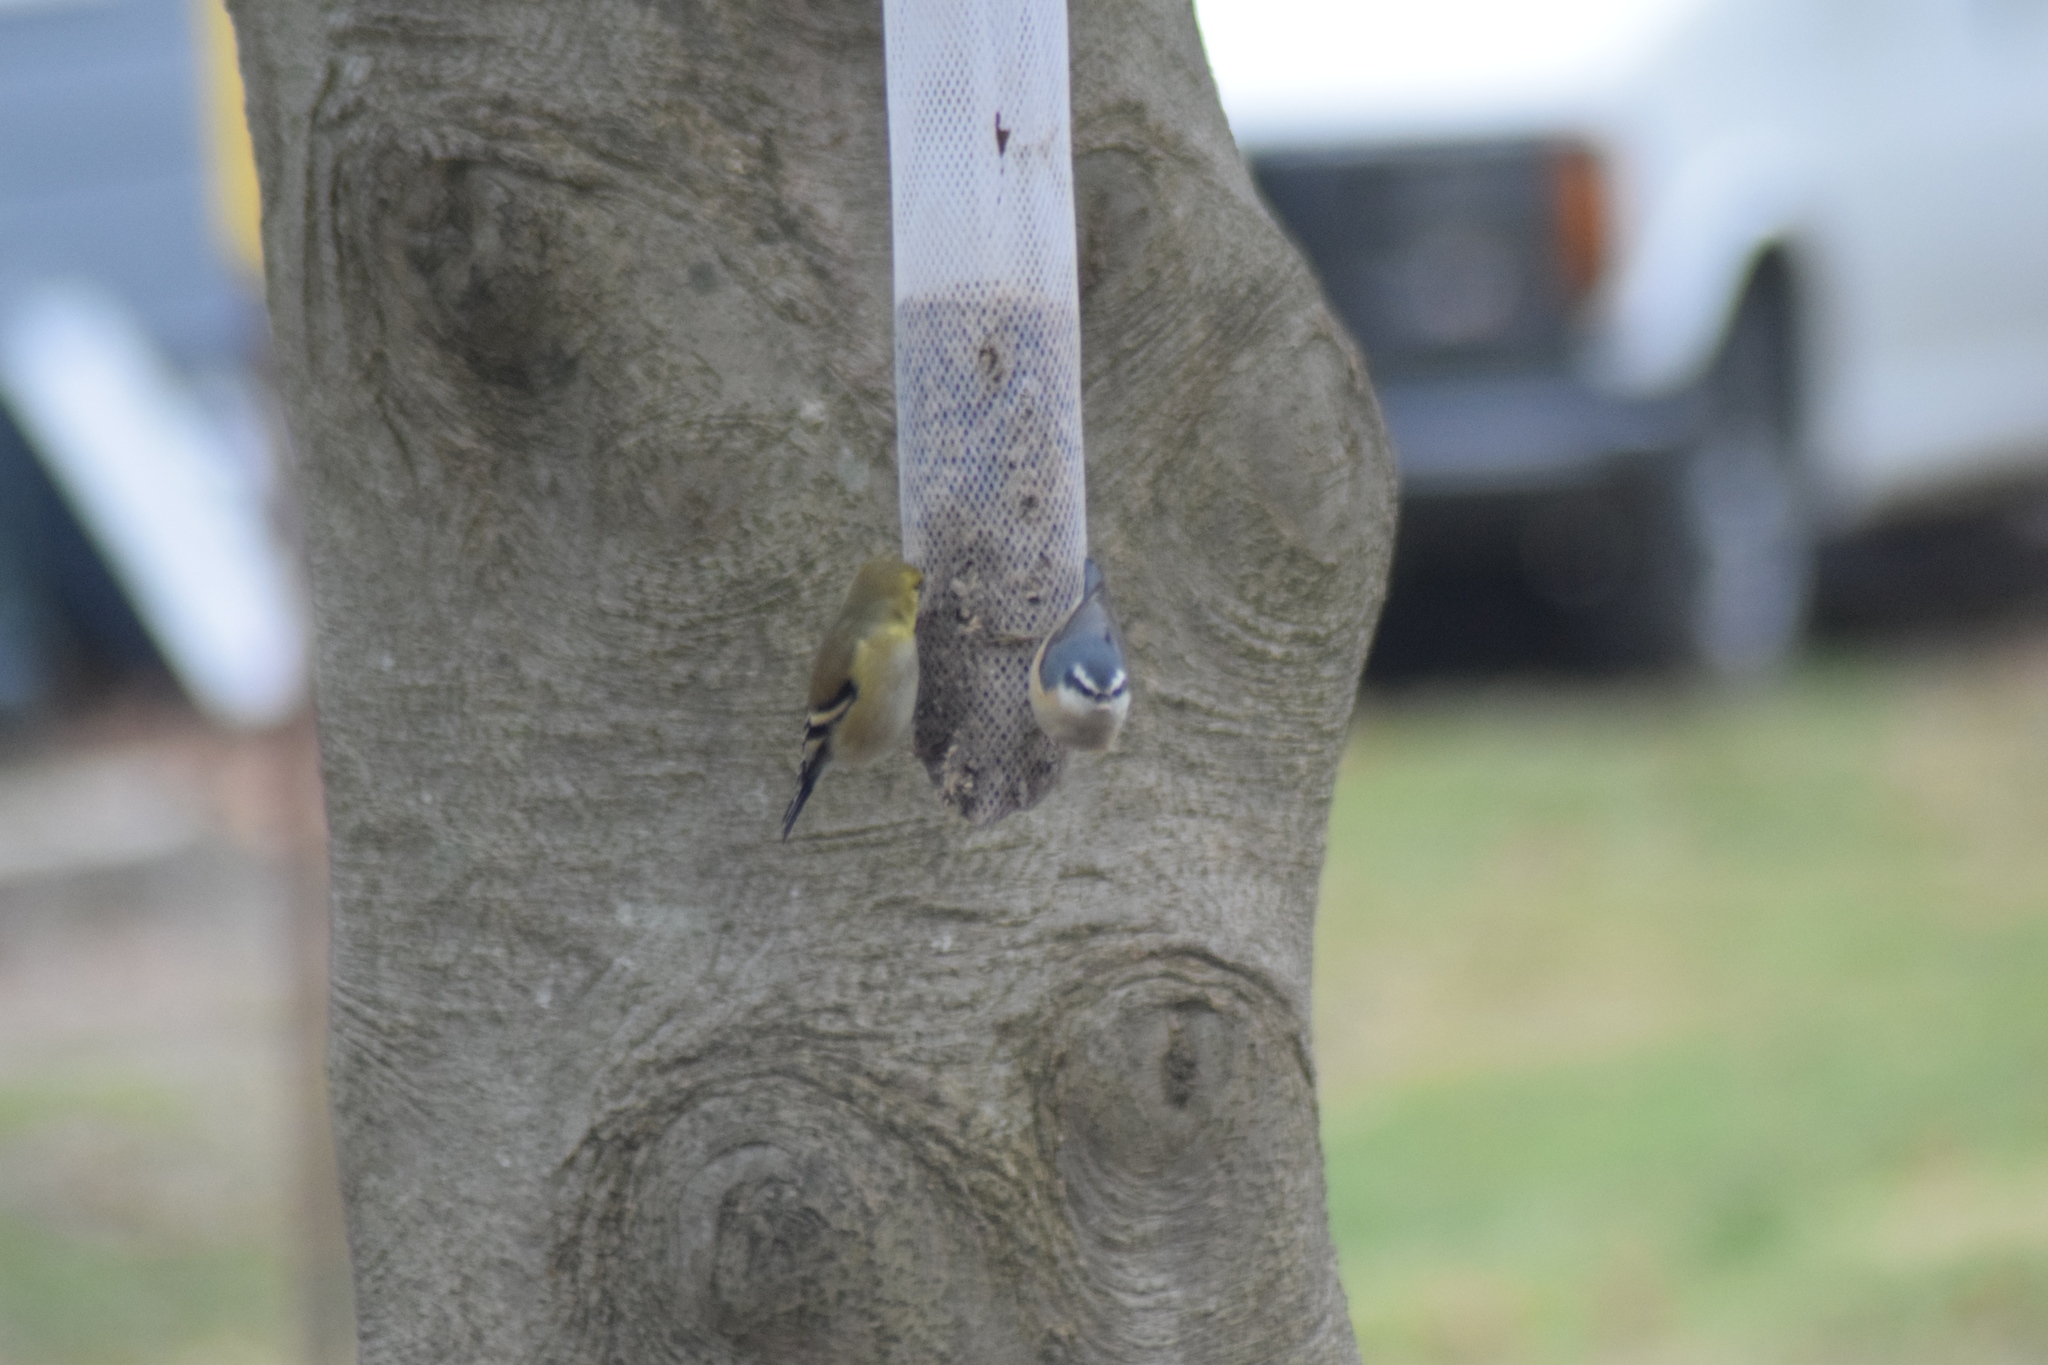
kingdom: Animalia
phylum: Chordata
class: Aves
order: Passeriformes
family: Sittidae
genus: Sitta
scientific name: Sitta canadensis
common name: Red-breasted nuthatch
